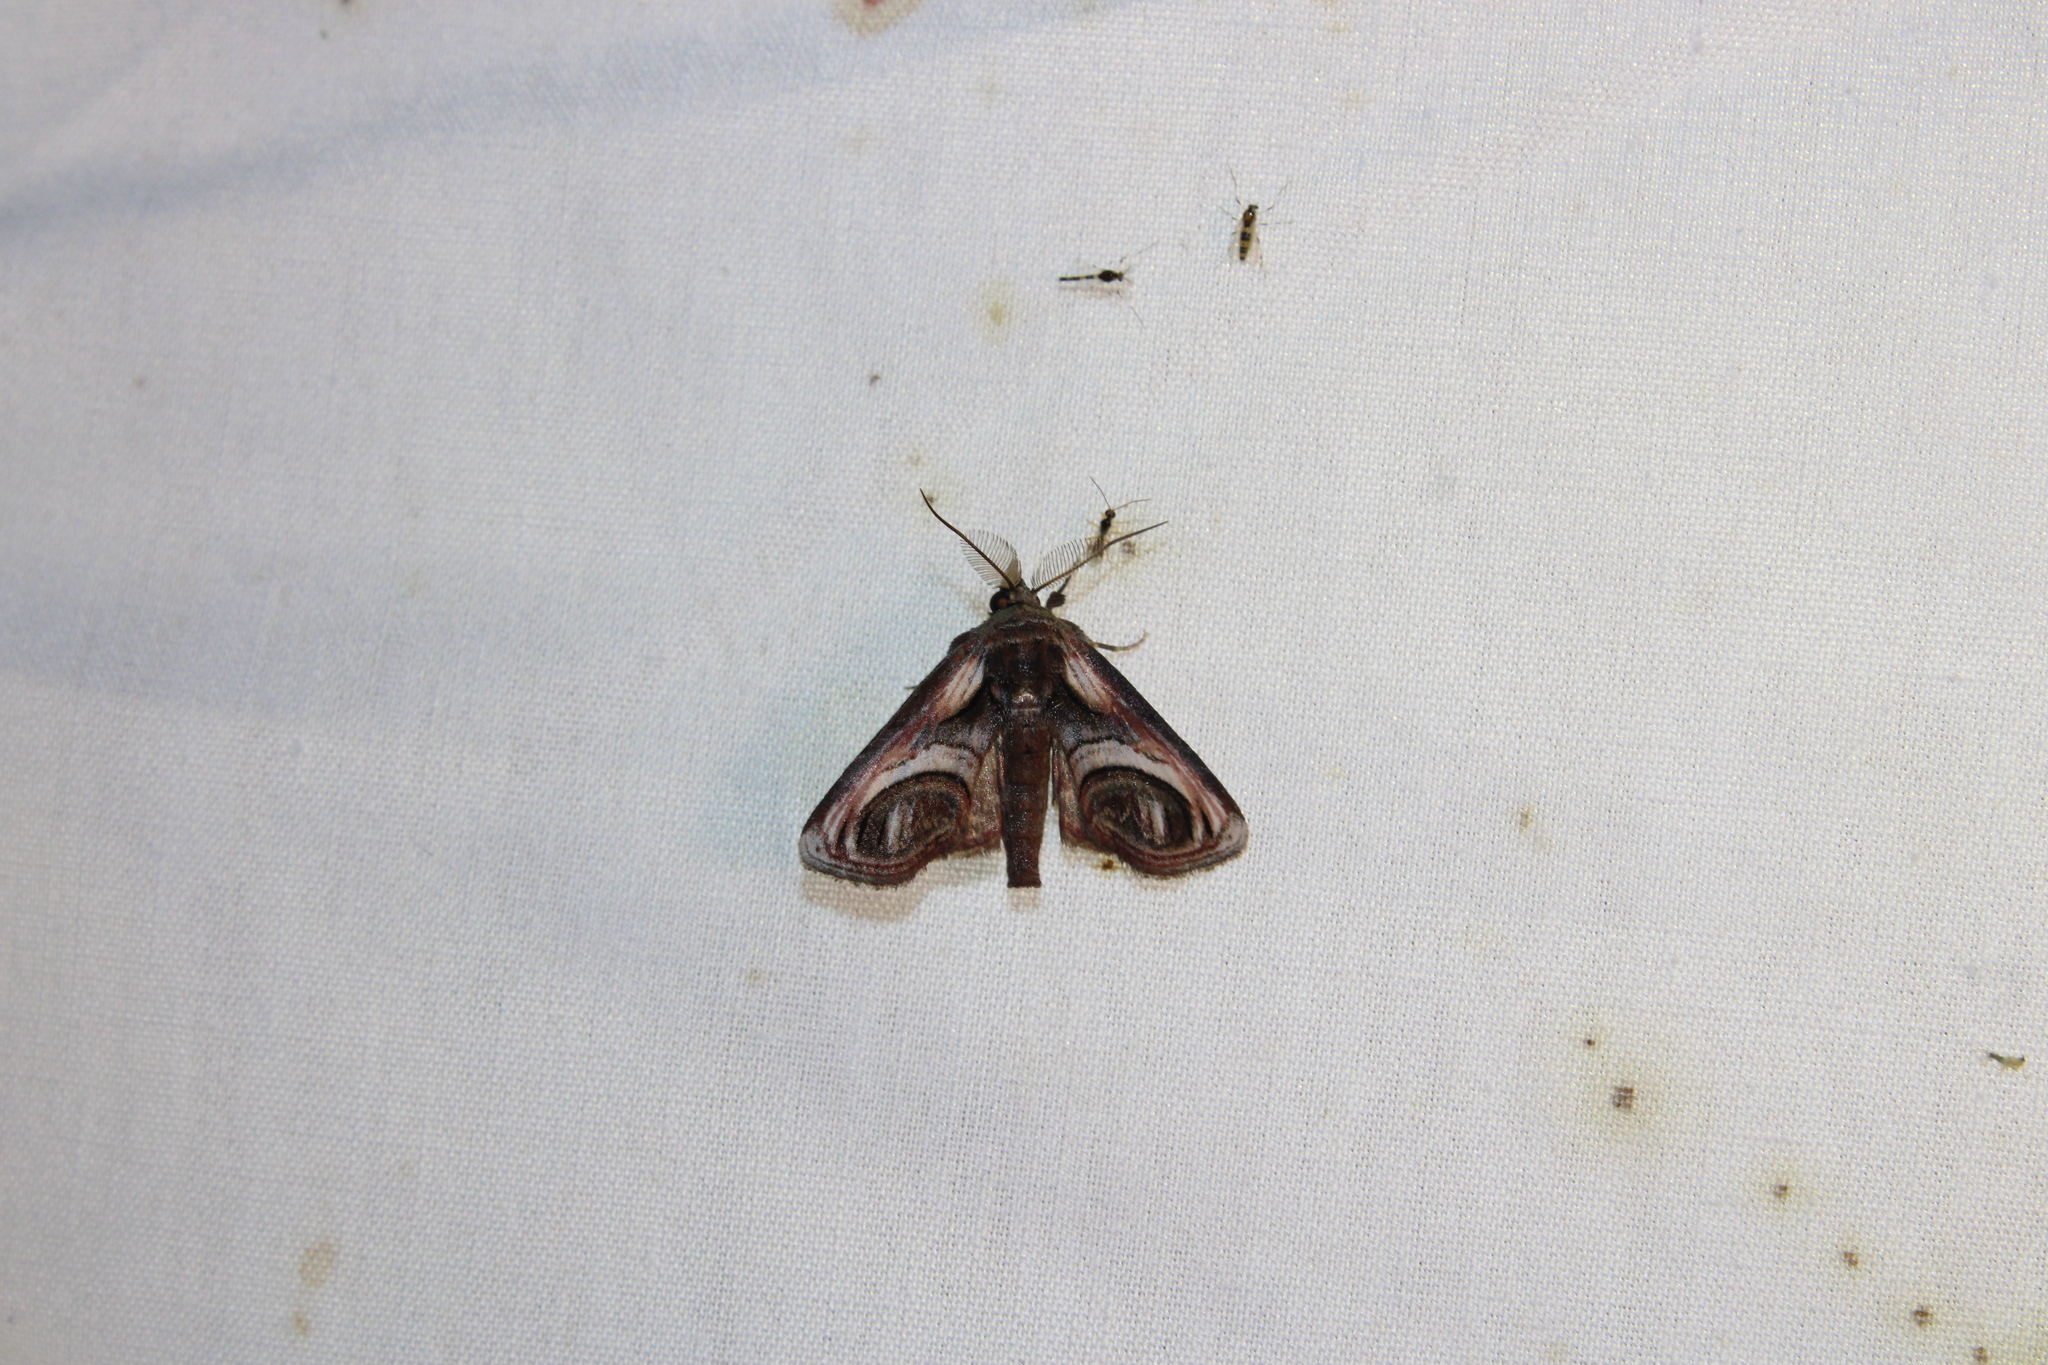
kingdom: Animalia
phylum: Arthropoda
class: Insecta
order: Lepidoptera
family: Euteliidae
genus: Paectes
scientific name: Paectes oculatrix
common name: Eyed paectes moth
